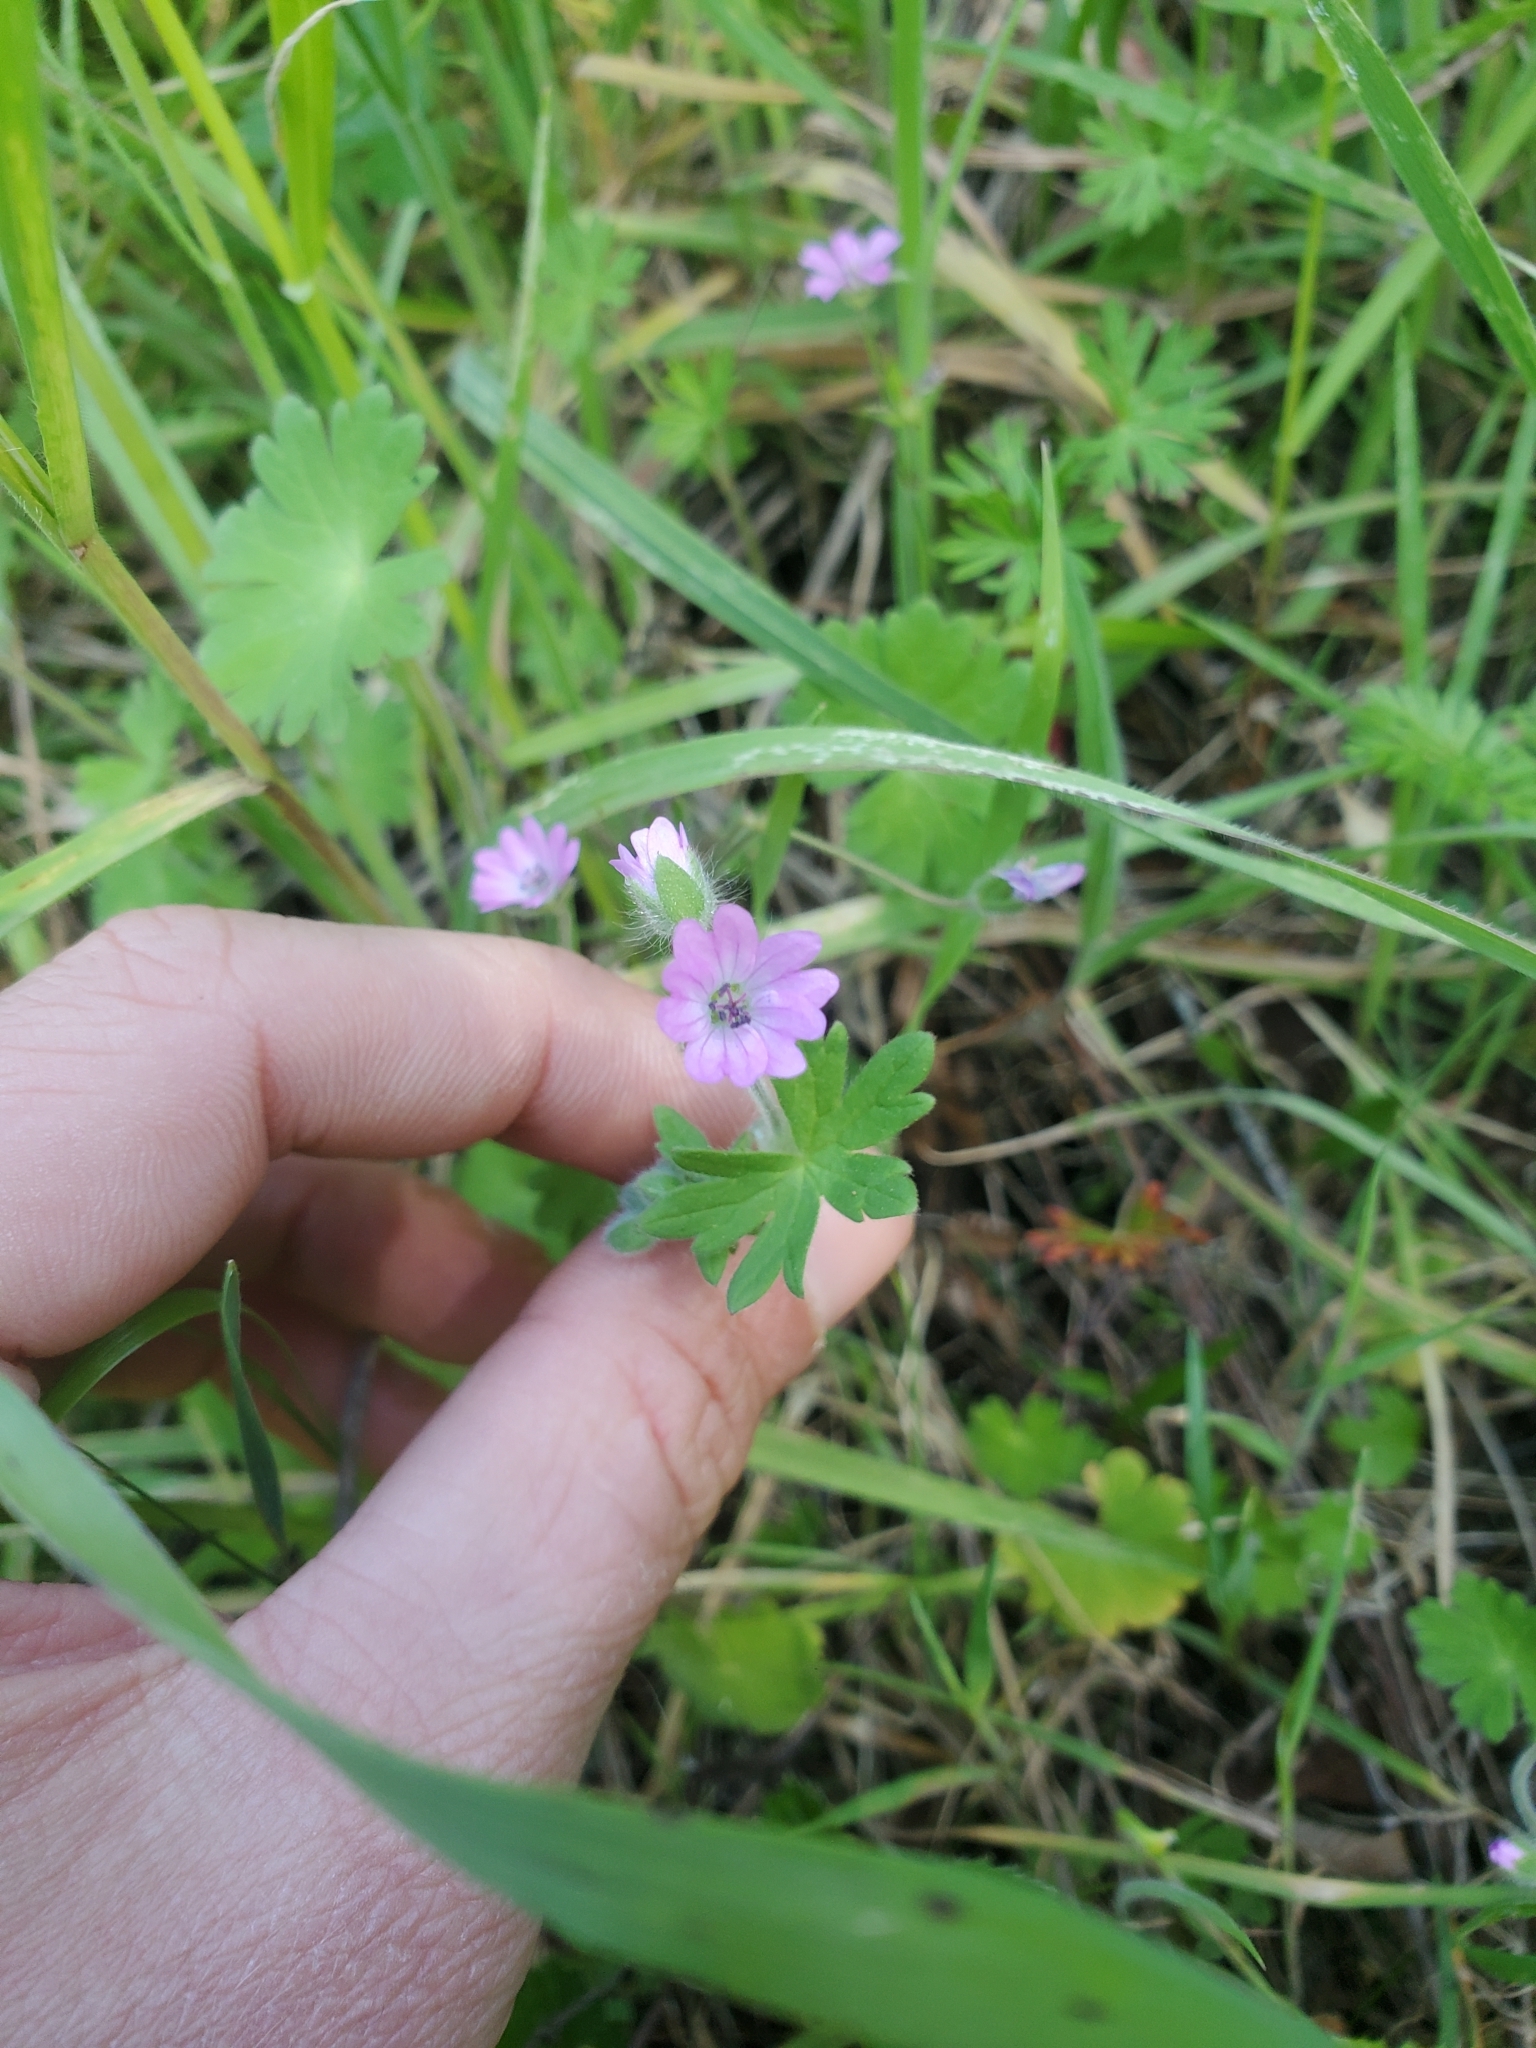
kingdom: Plantae
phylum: Tracheophyta
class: Magnoliopsida
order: Geraniales
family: Geraniaceae
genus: Geranium
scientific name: Geranium molle
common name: Dove's-foot crane's-bill
